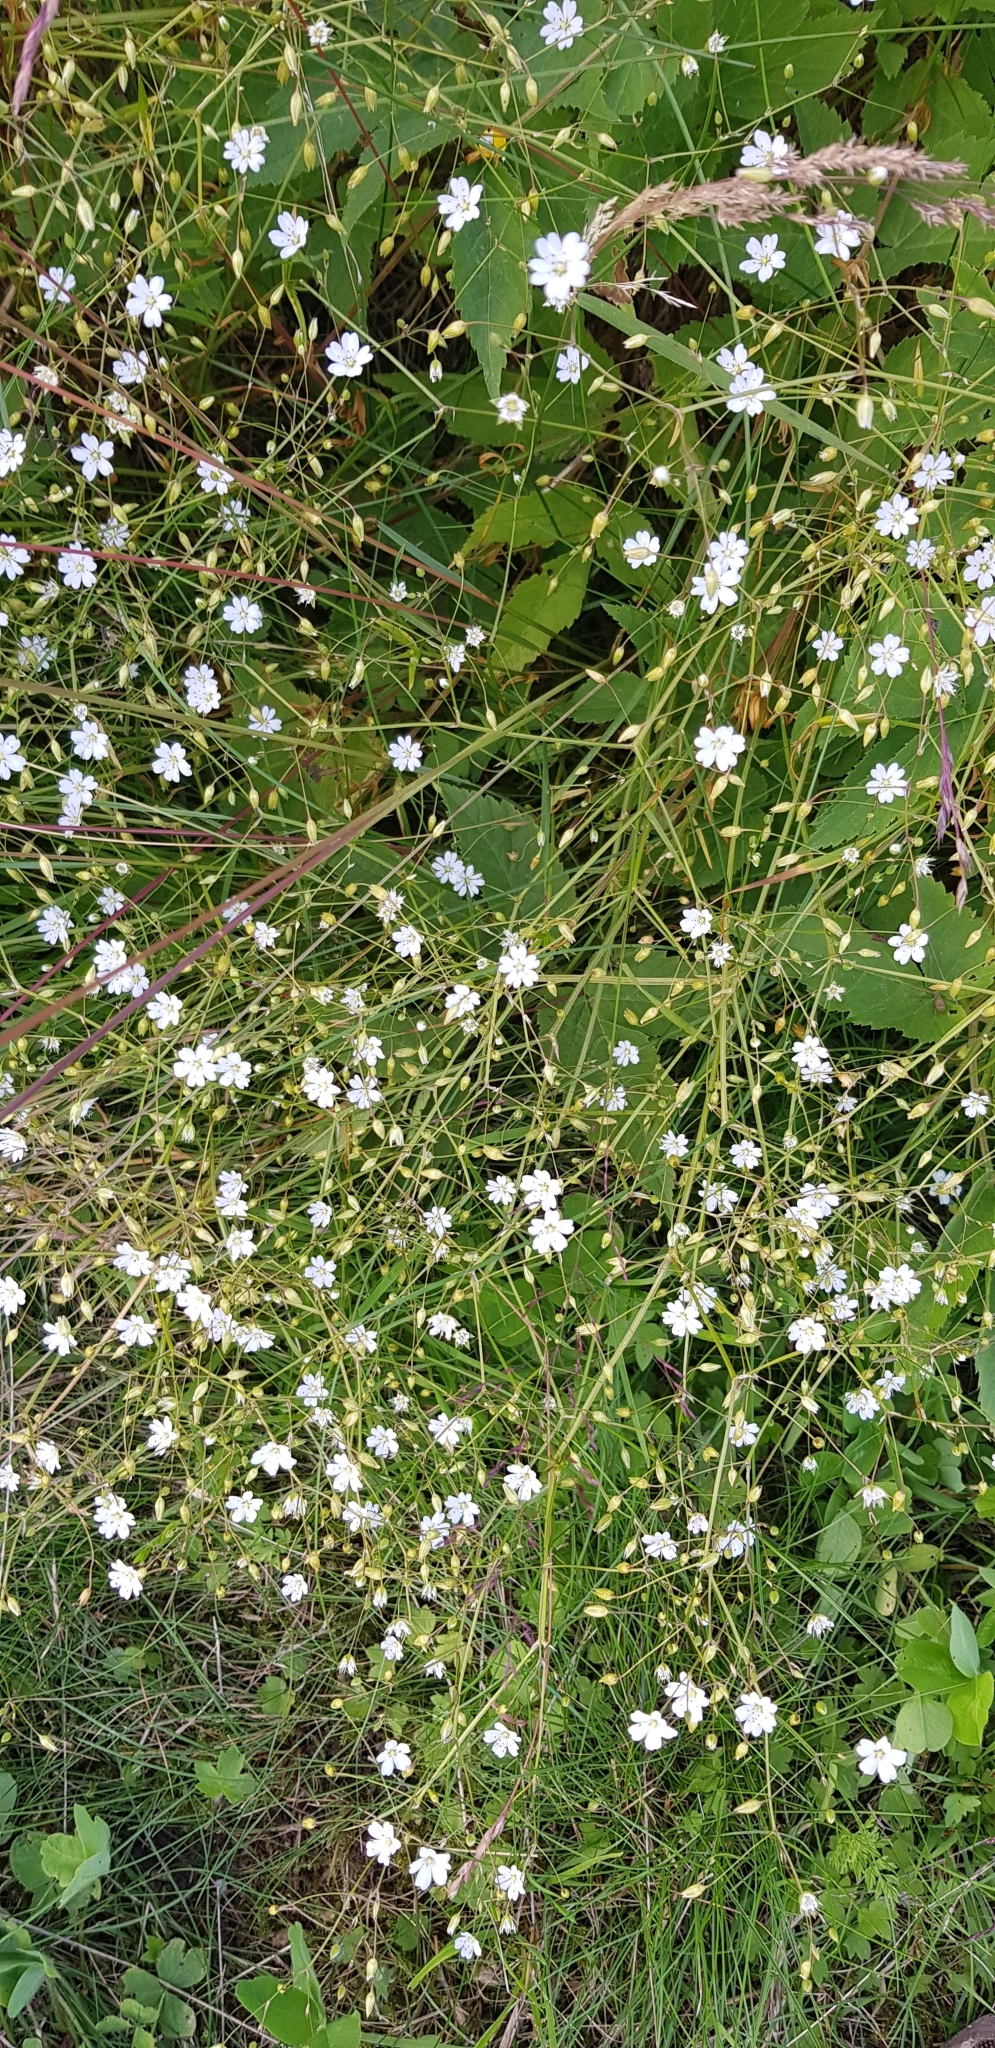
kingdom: Plantae
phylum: Tracheophyta
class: Magnoliopsida
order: Caryophyllales
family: Caryophyllaceae
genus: Stellaria
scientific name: Stellaria graminea
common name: Grass-like starwort
